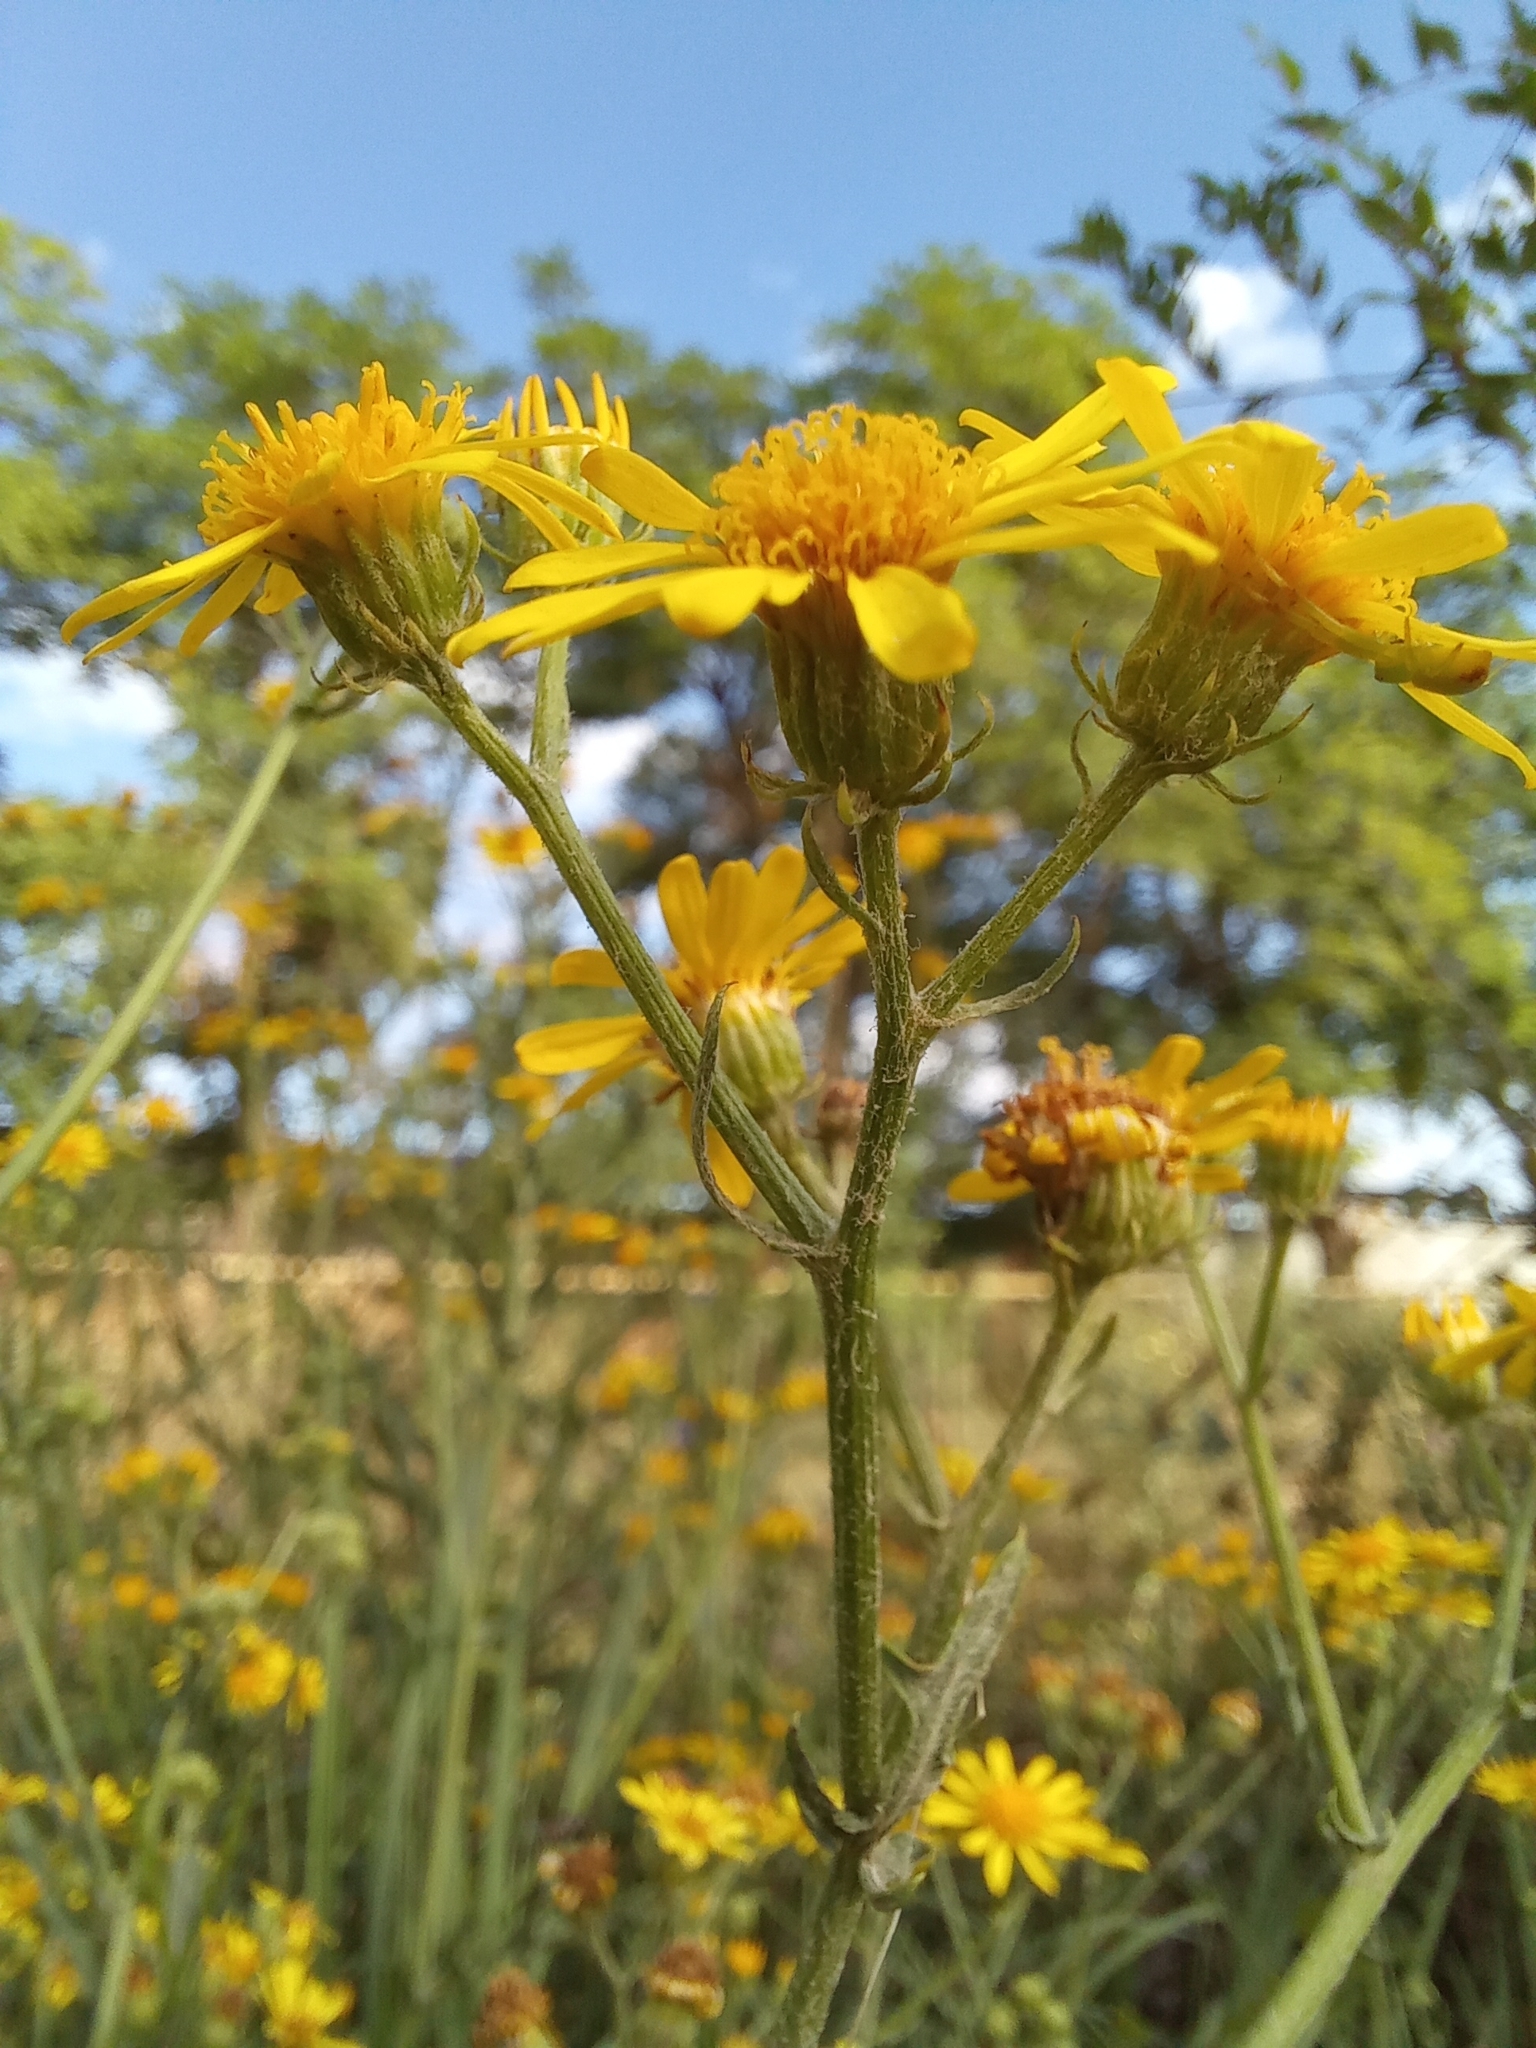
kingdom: Plantae
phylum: Tracheophyta
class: Magnoliopsida
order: Asterales
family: Asteraceae
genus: Jacobaea
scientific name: Jacobaea erucifolia
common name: Hoary ragwort
